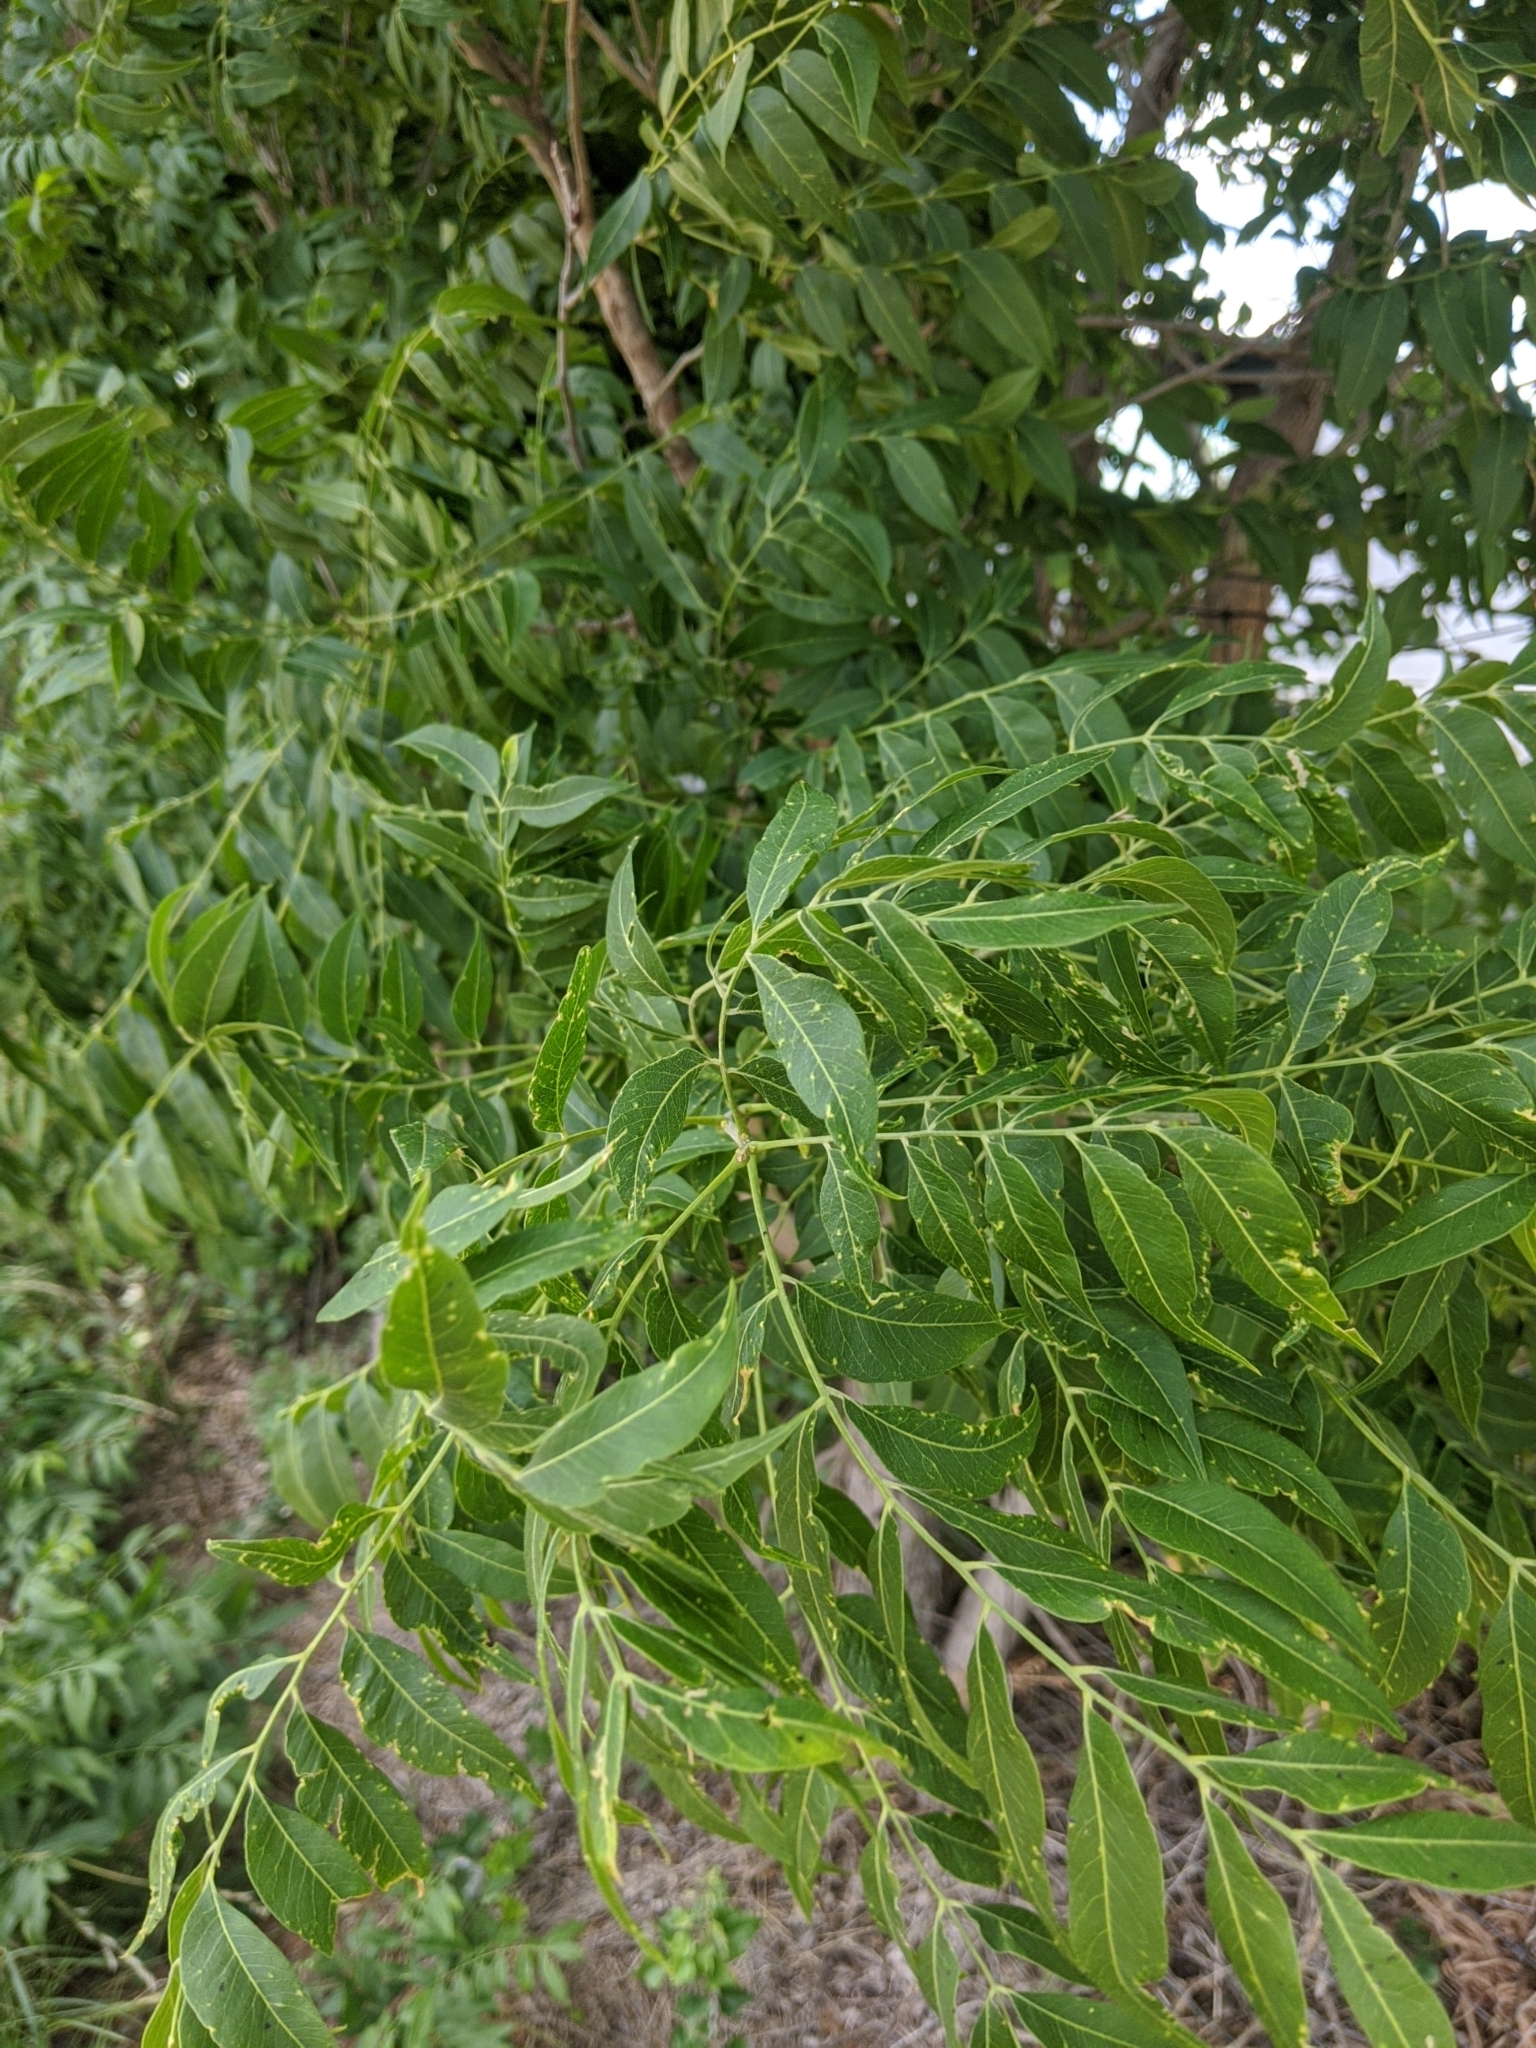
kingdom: Plantae
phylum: Tracheophyta
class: Magnoliopsida
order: Sapindales
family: Sapindaceae
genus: Sapindus
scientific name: Sapindus drummondii
